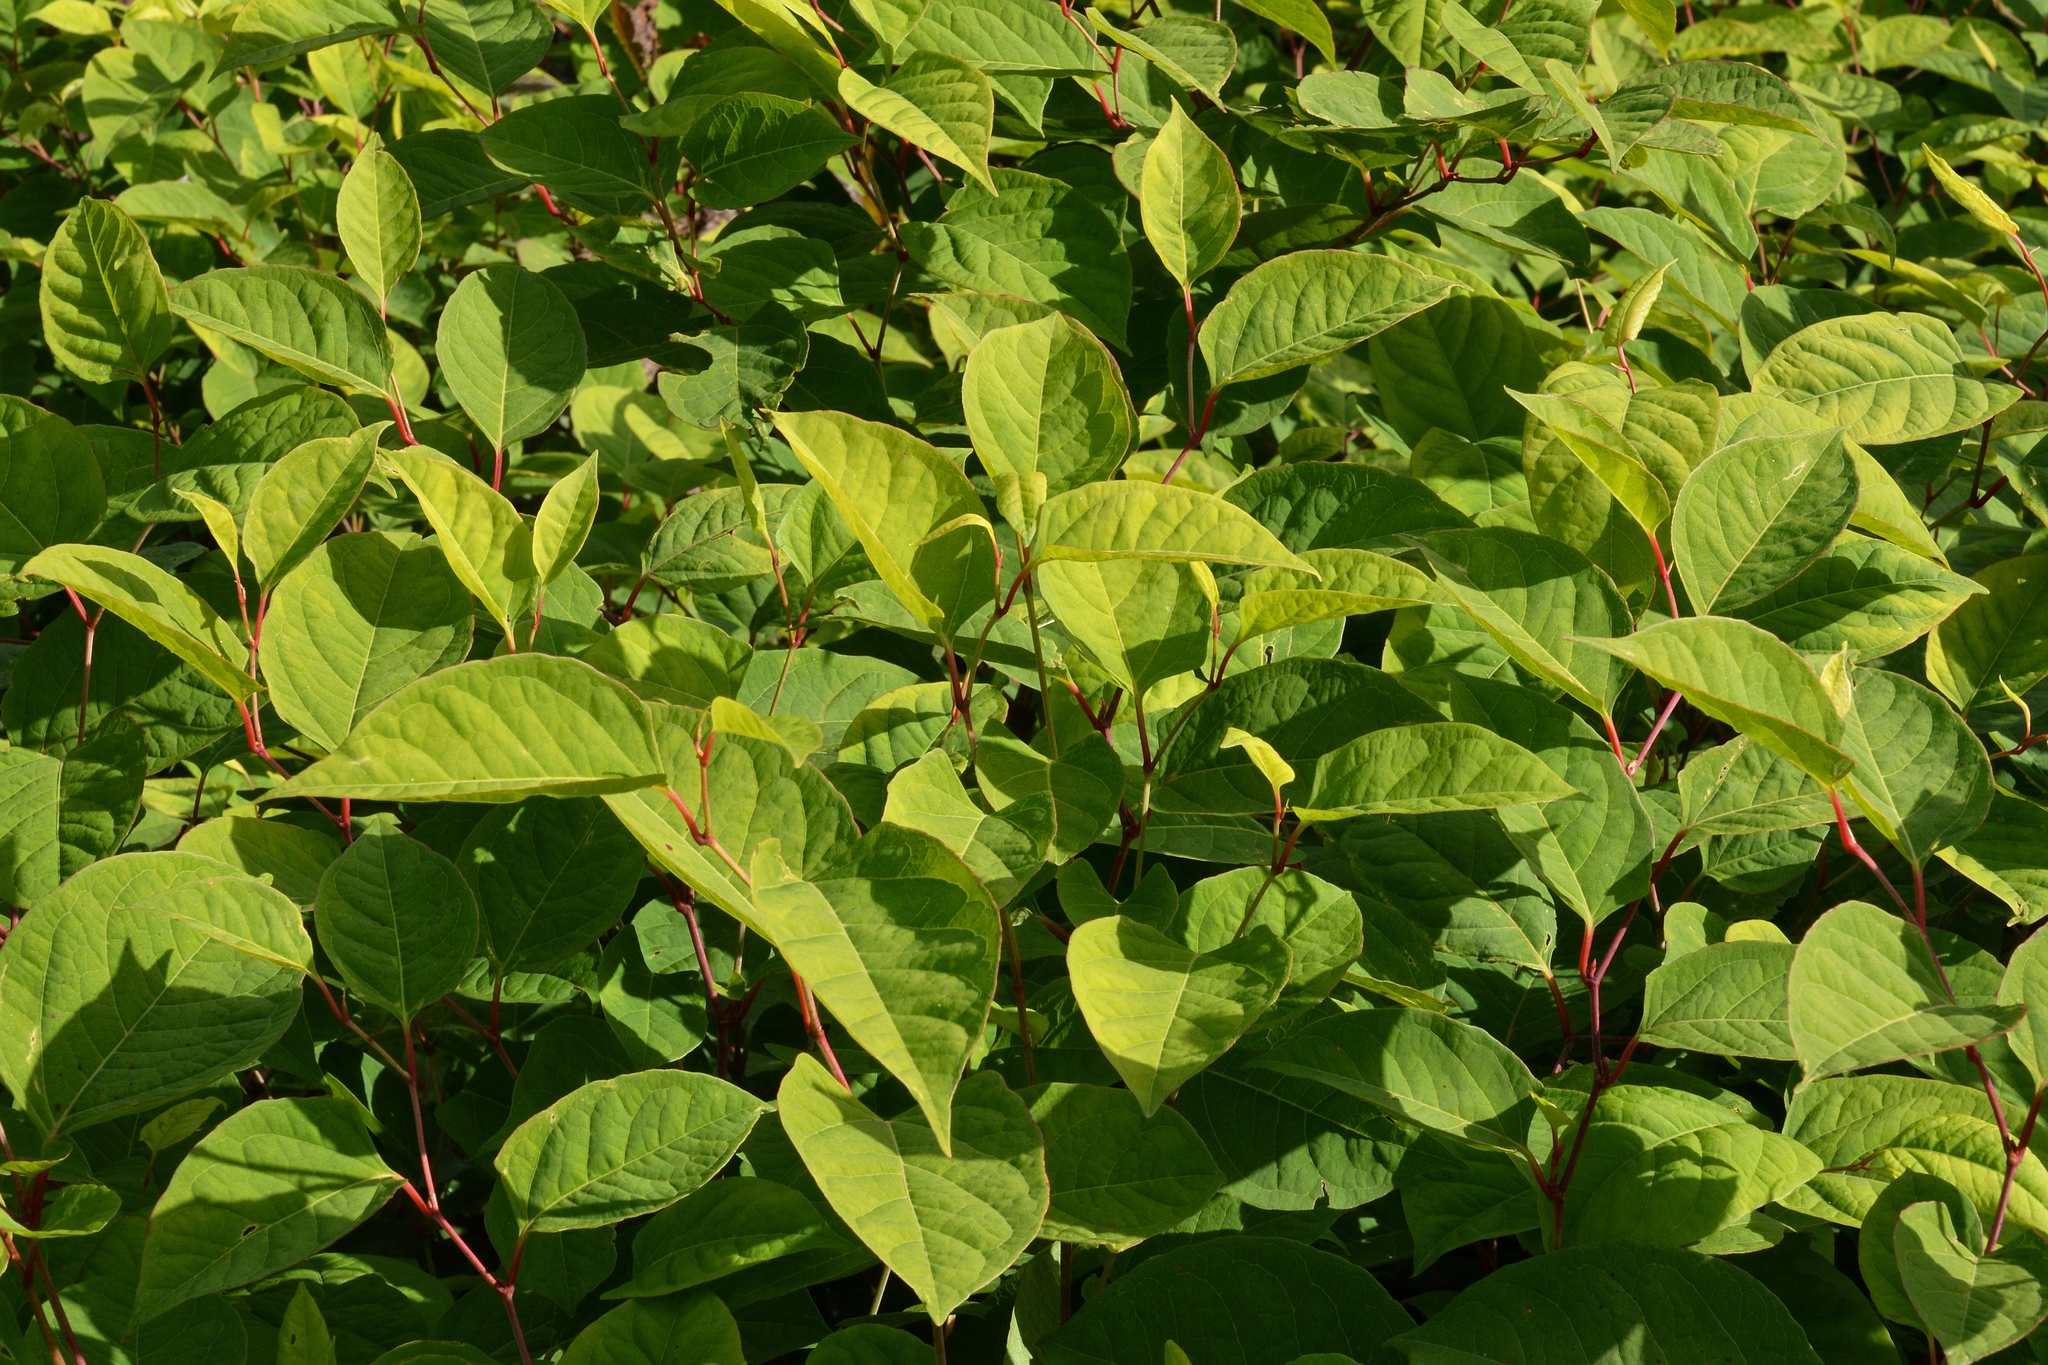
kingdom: Plantae
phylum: Tracheophyta
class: Magnoliopsida
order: Caryophyllales
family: Polygonaceae
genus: Reynoutria
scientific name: Reynoutria japonica
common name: Japanese knotweed
